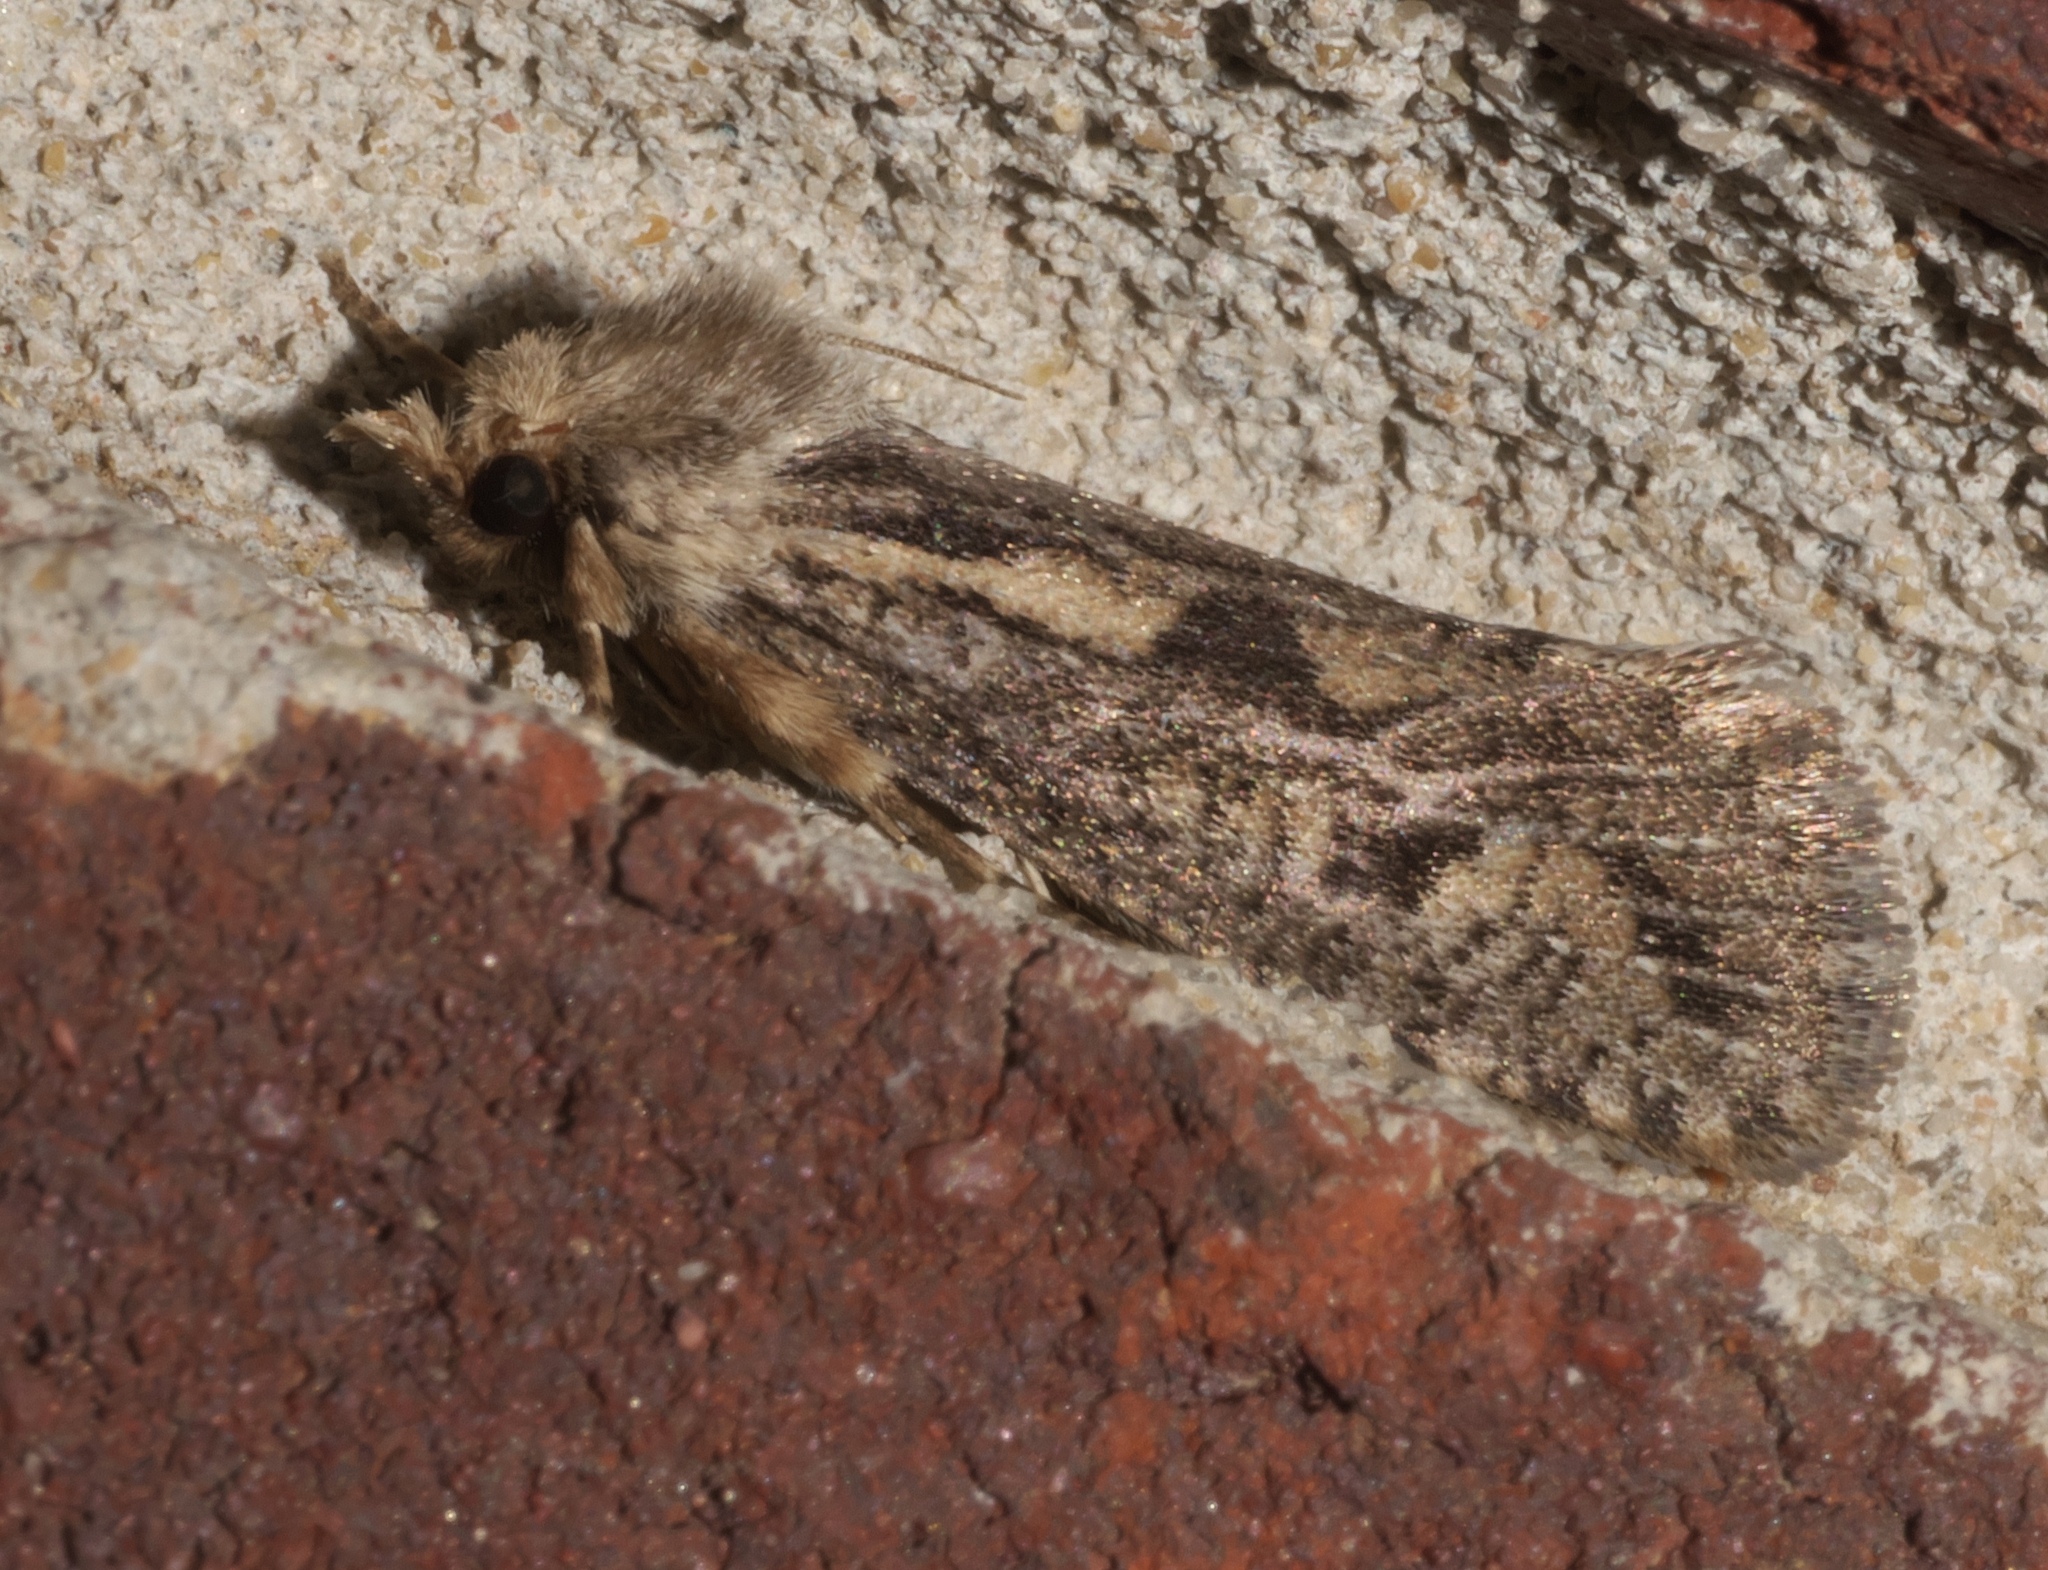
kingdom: Animalia
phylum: Arthropoda
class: Insecta
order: Lepidoptera
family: Tineidae
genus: Acrolophus
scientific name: Acrolophus popeanella
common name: Clemens' grass tubeworm moth
